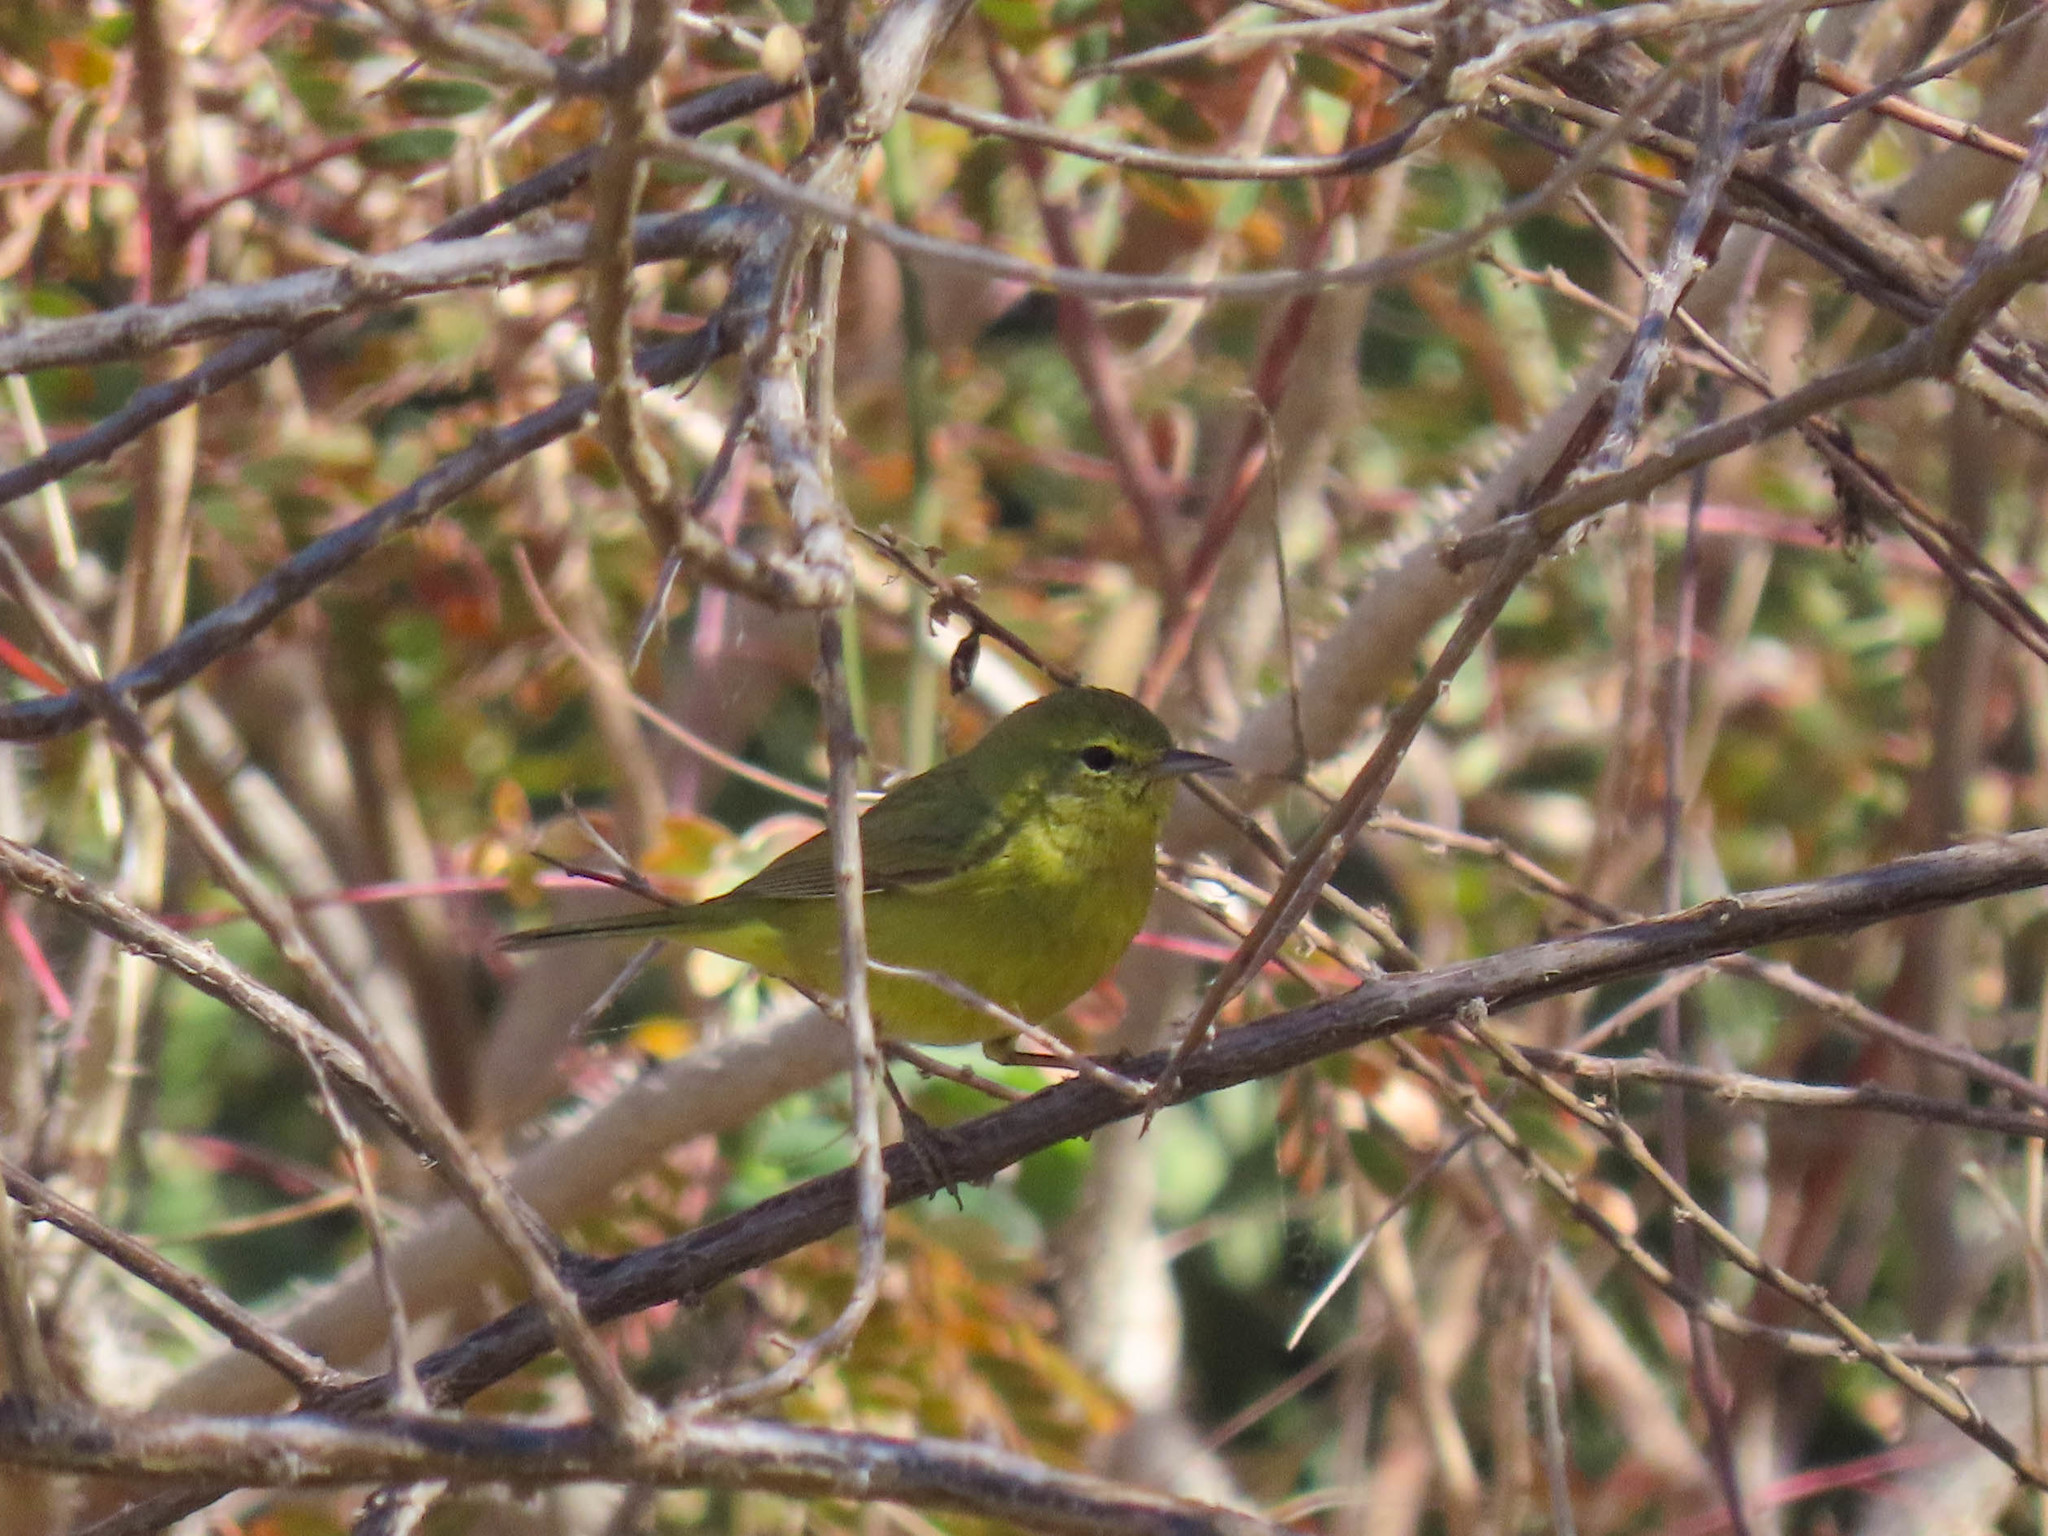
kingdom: Animalia
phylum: Chordata
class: Aves
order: Passeriformes
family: Parulidae
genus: Leiothlypis
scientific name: Leiothlypis celata
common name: Orange-crowned warbler
